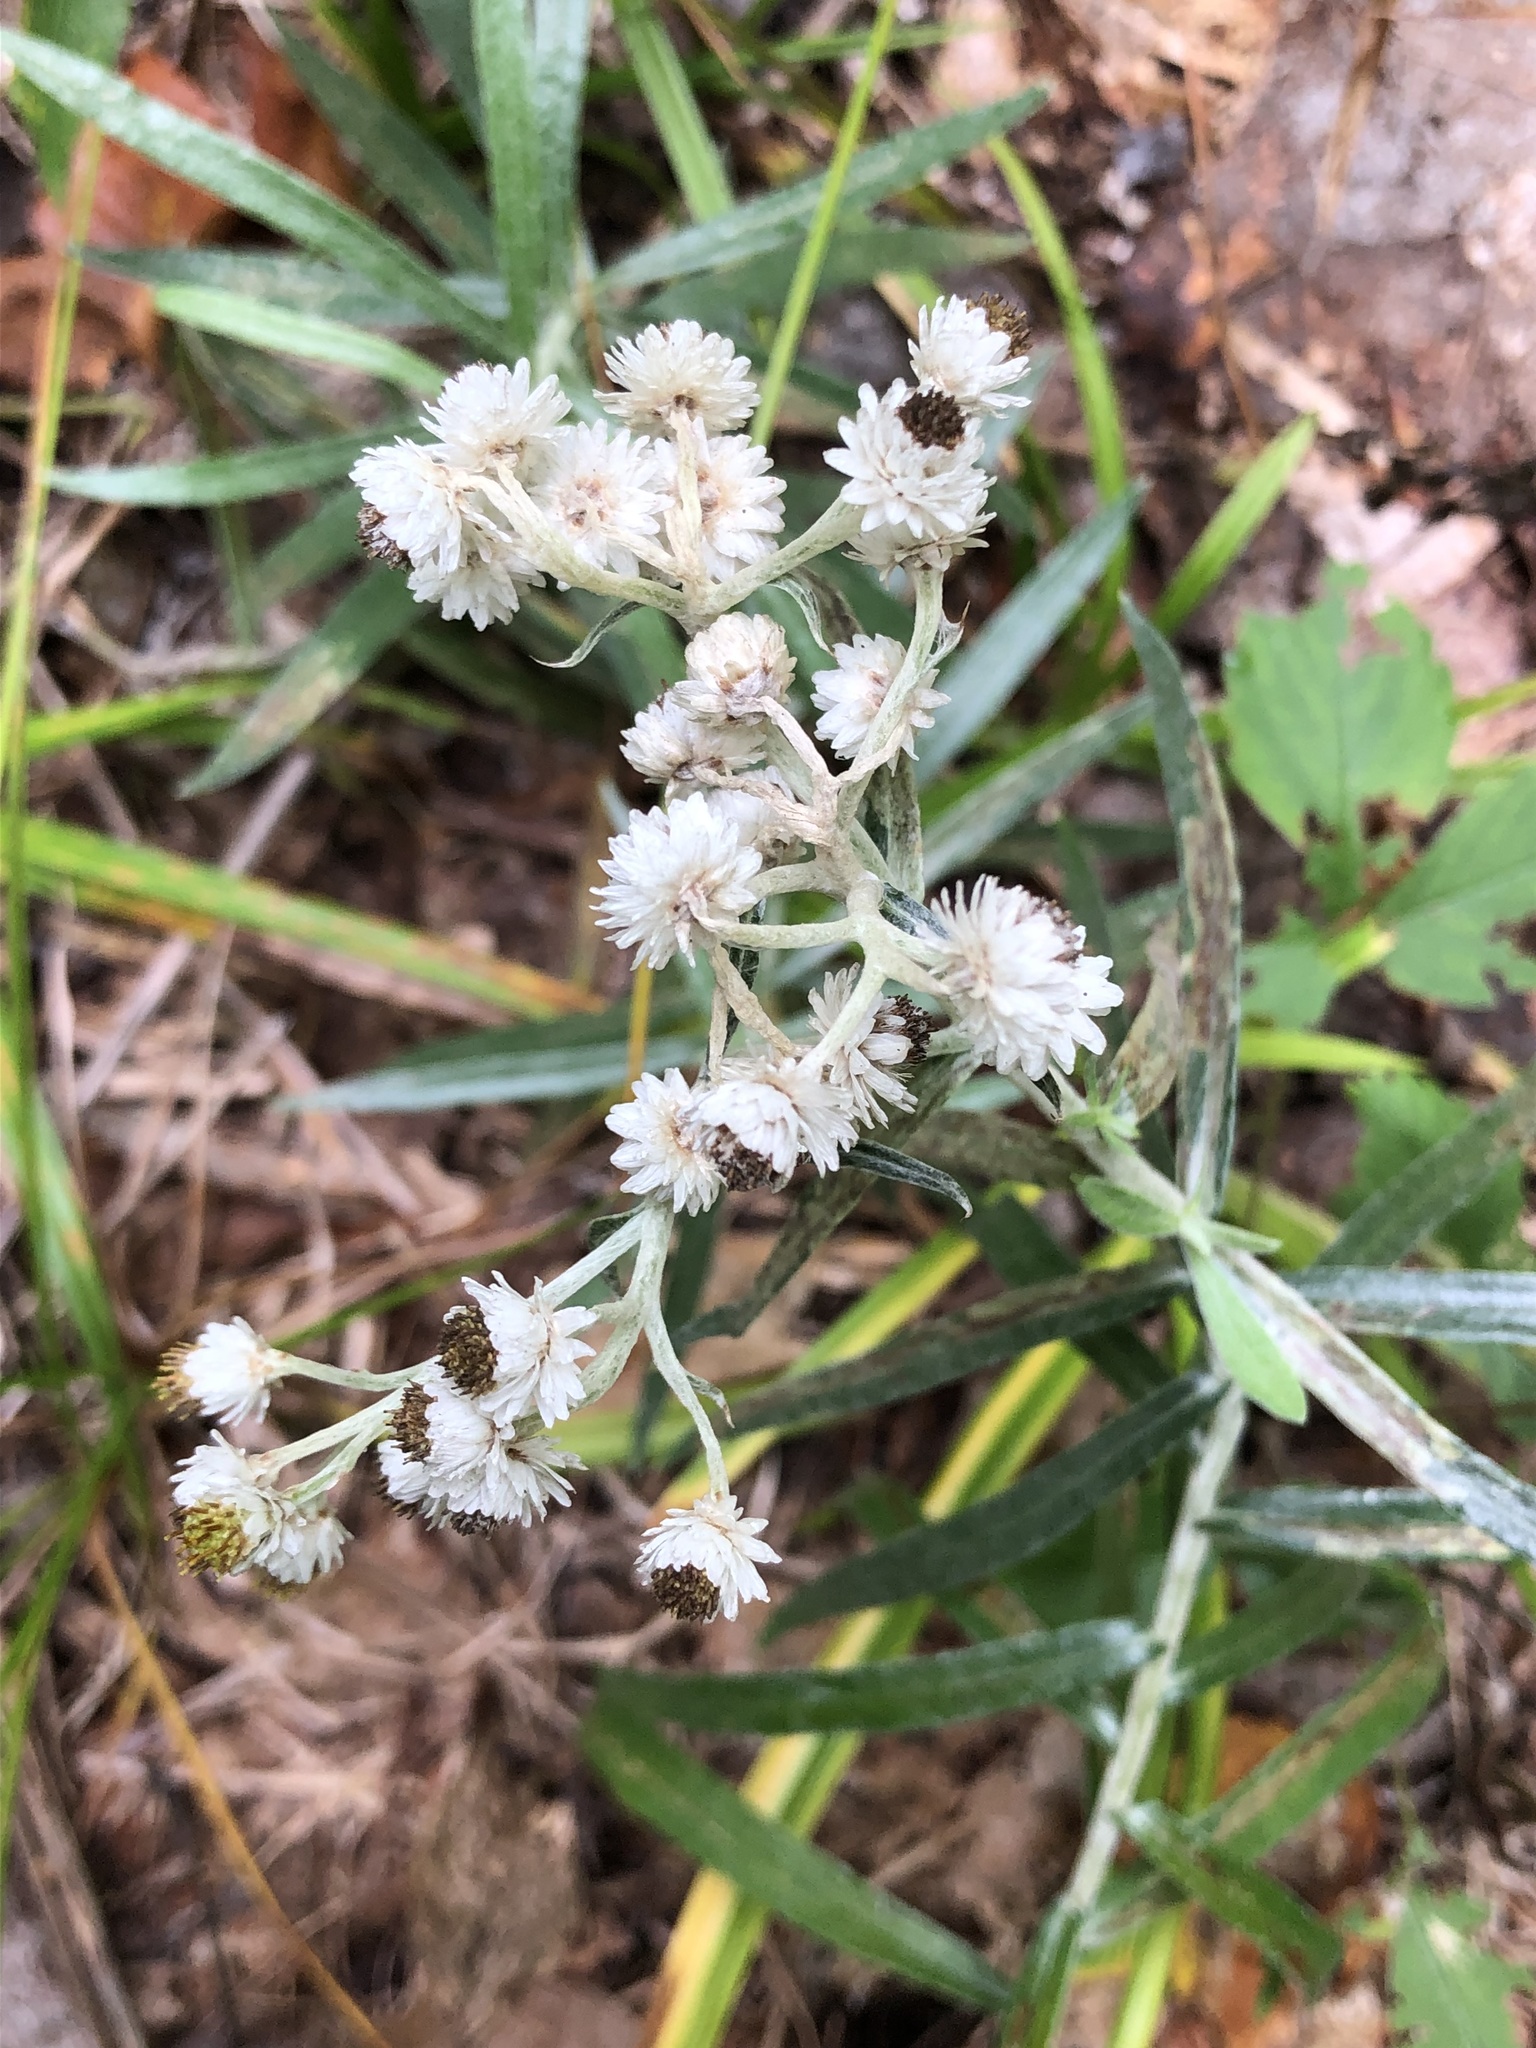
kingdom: Plantae
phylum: Tracheophyta
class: Magnoliopsida
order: Asterales
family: Asteraceae
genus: Anaphalis
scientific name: Anaphalis margaritacea
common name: Pearly everlasting
